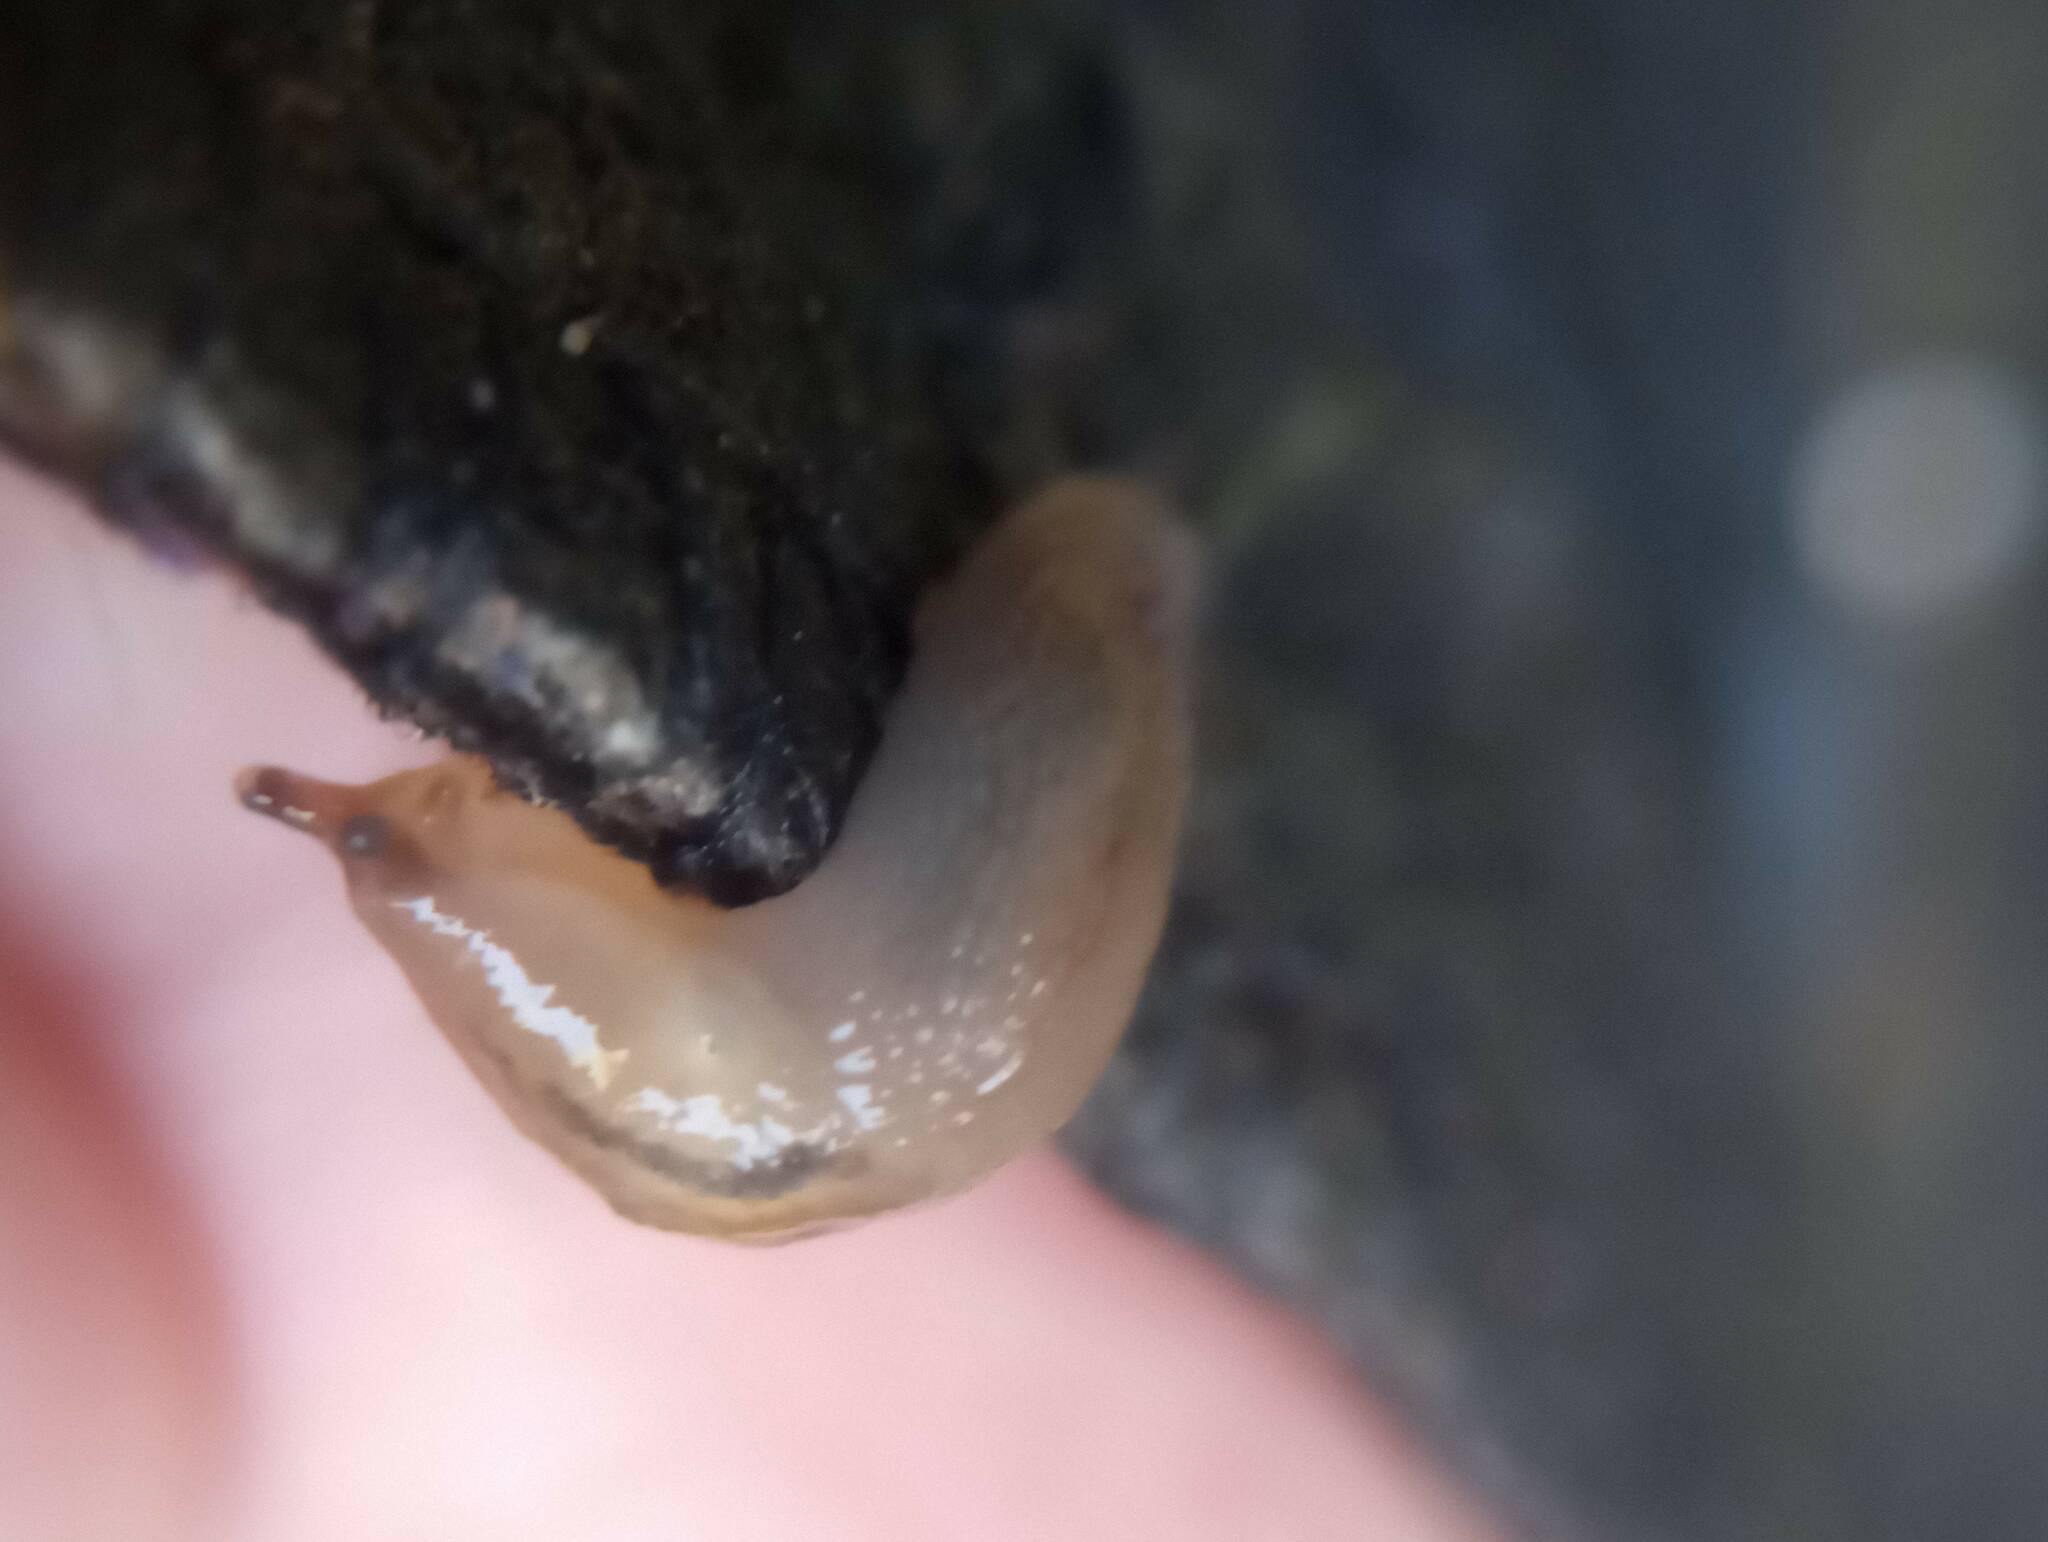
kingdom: Animalia
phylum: Mollusca
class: Gastropoda
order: Stylommatophora
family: Limacidae
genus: Ambigolimax
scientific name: Ambigolimax
